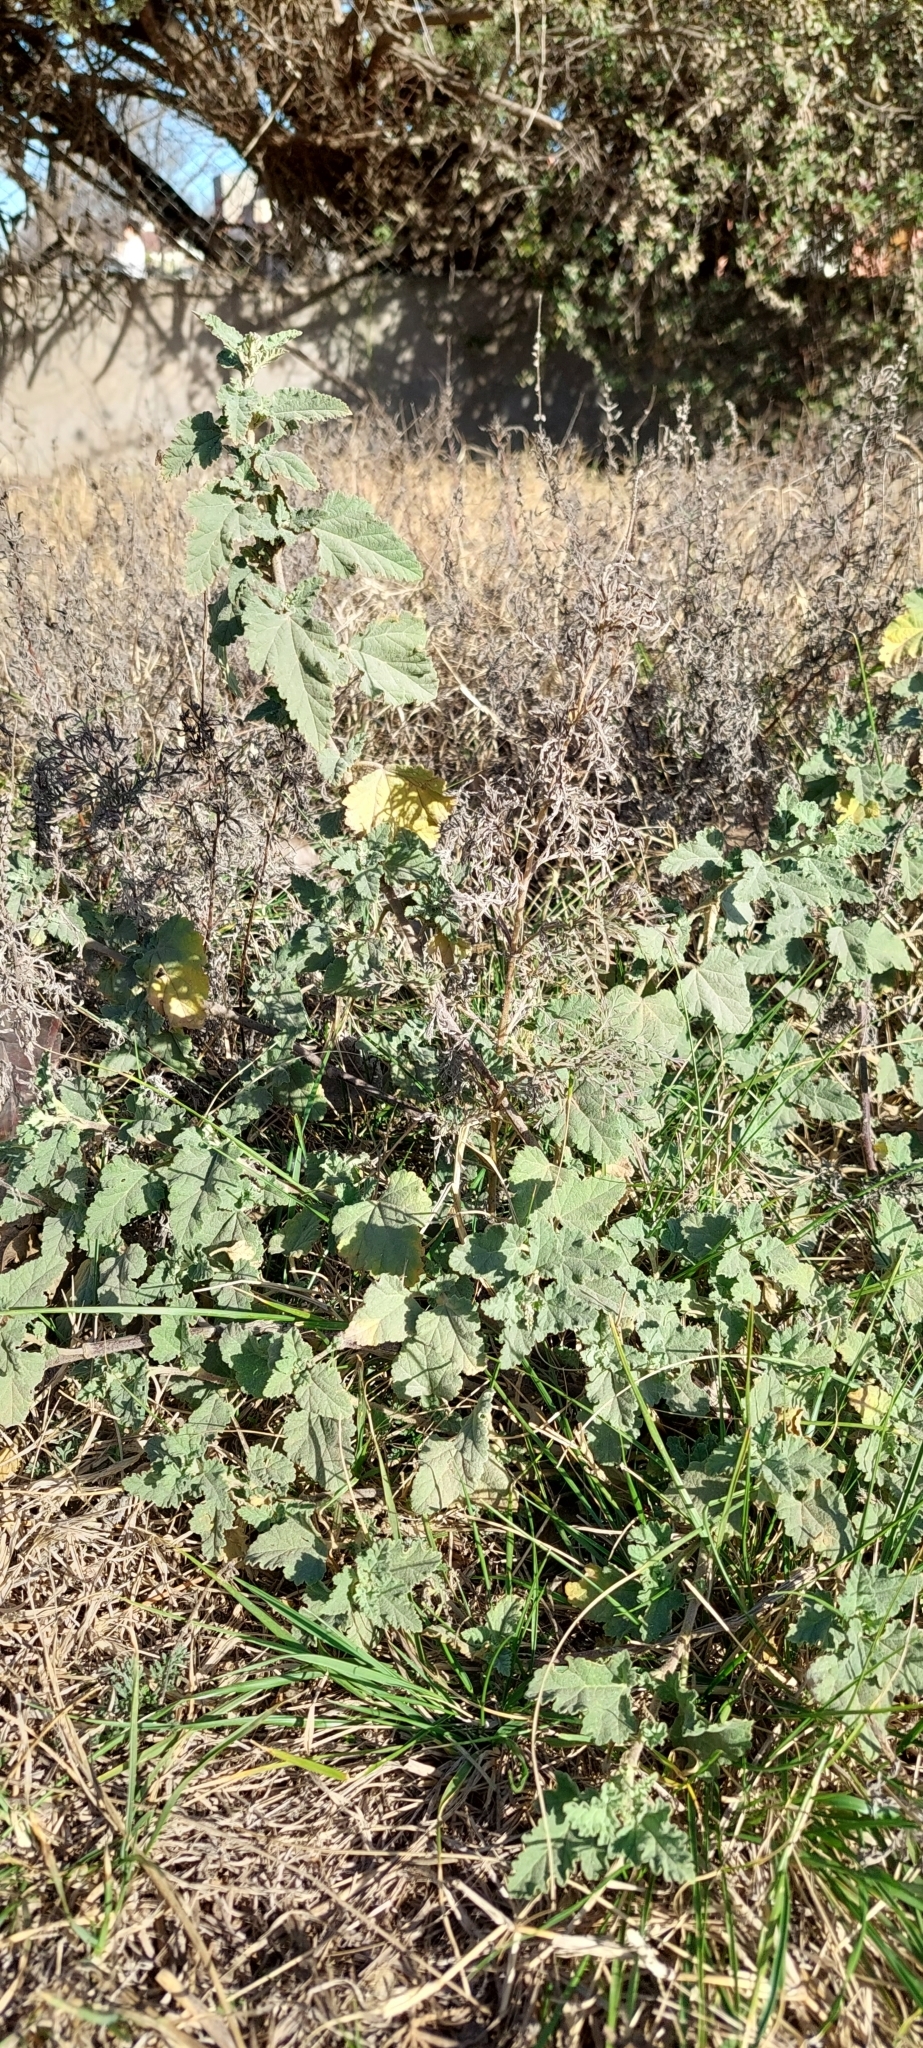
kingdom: Plantae
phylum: Tracheophyta
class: Magnoliopsida
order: Malvales
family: Malvaceae
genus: Sphaeralcea
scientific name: Sphaeralcea bonariensis
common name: Latin globemallow
